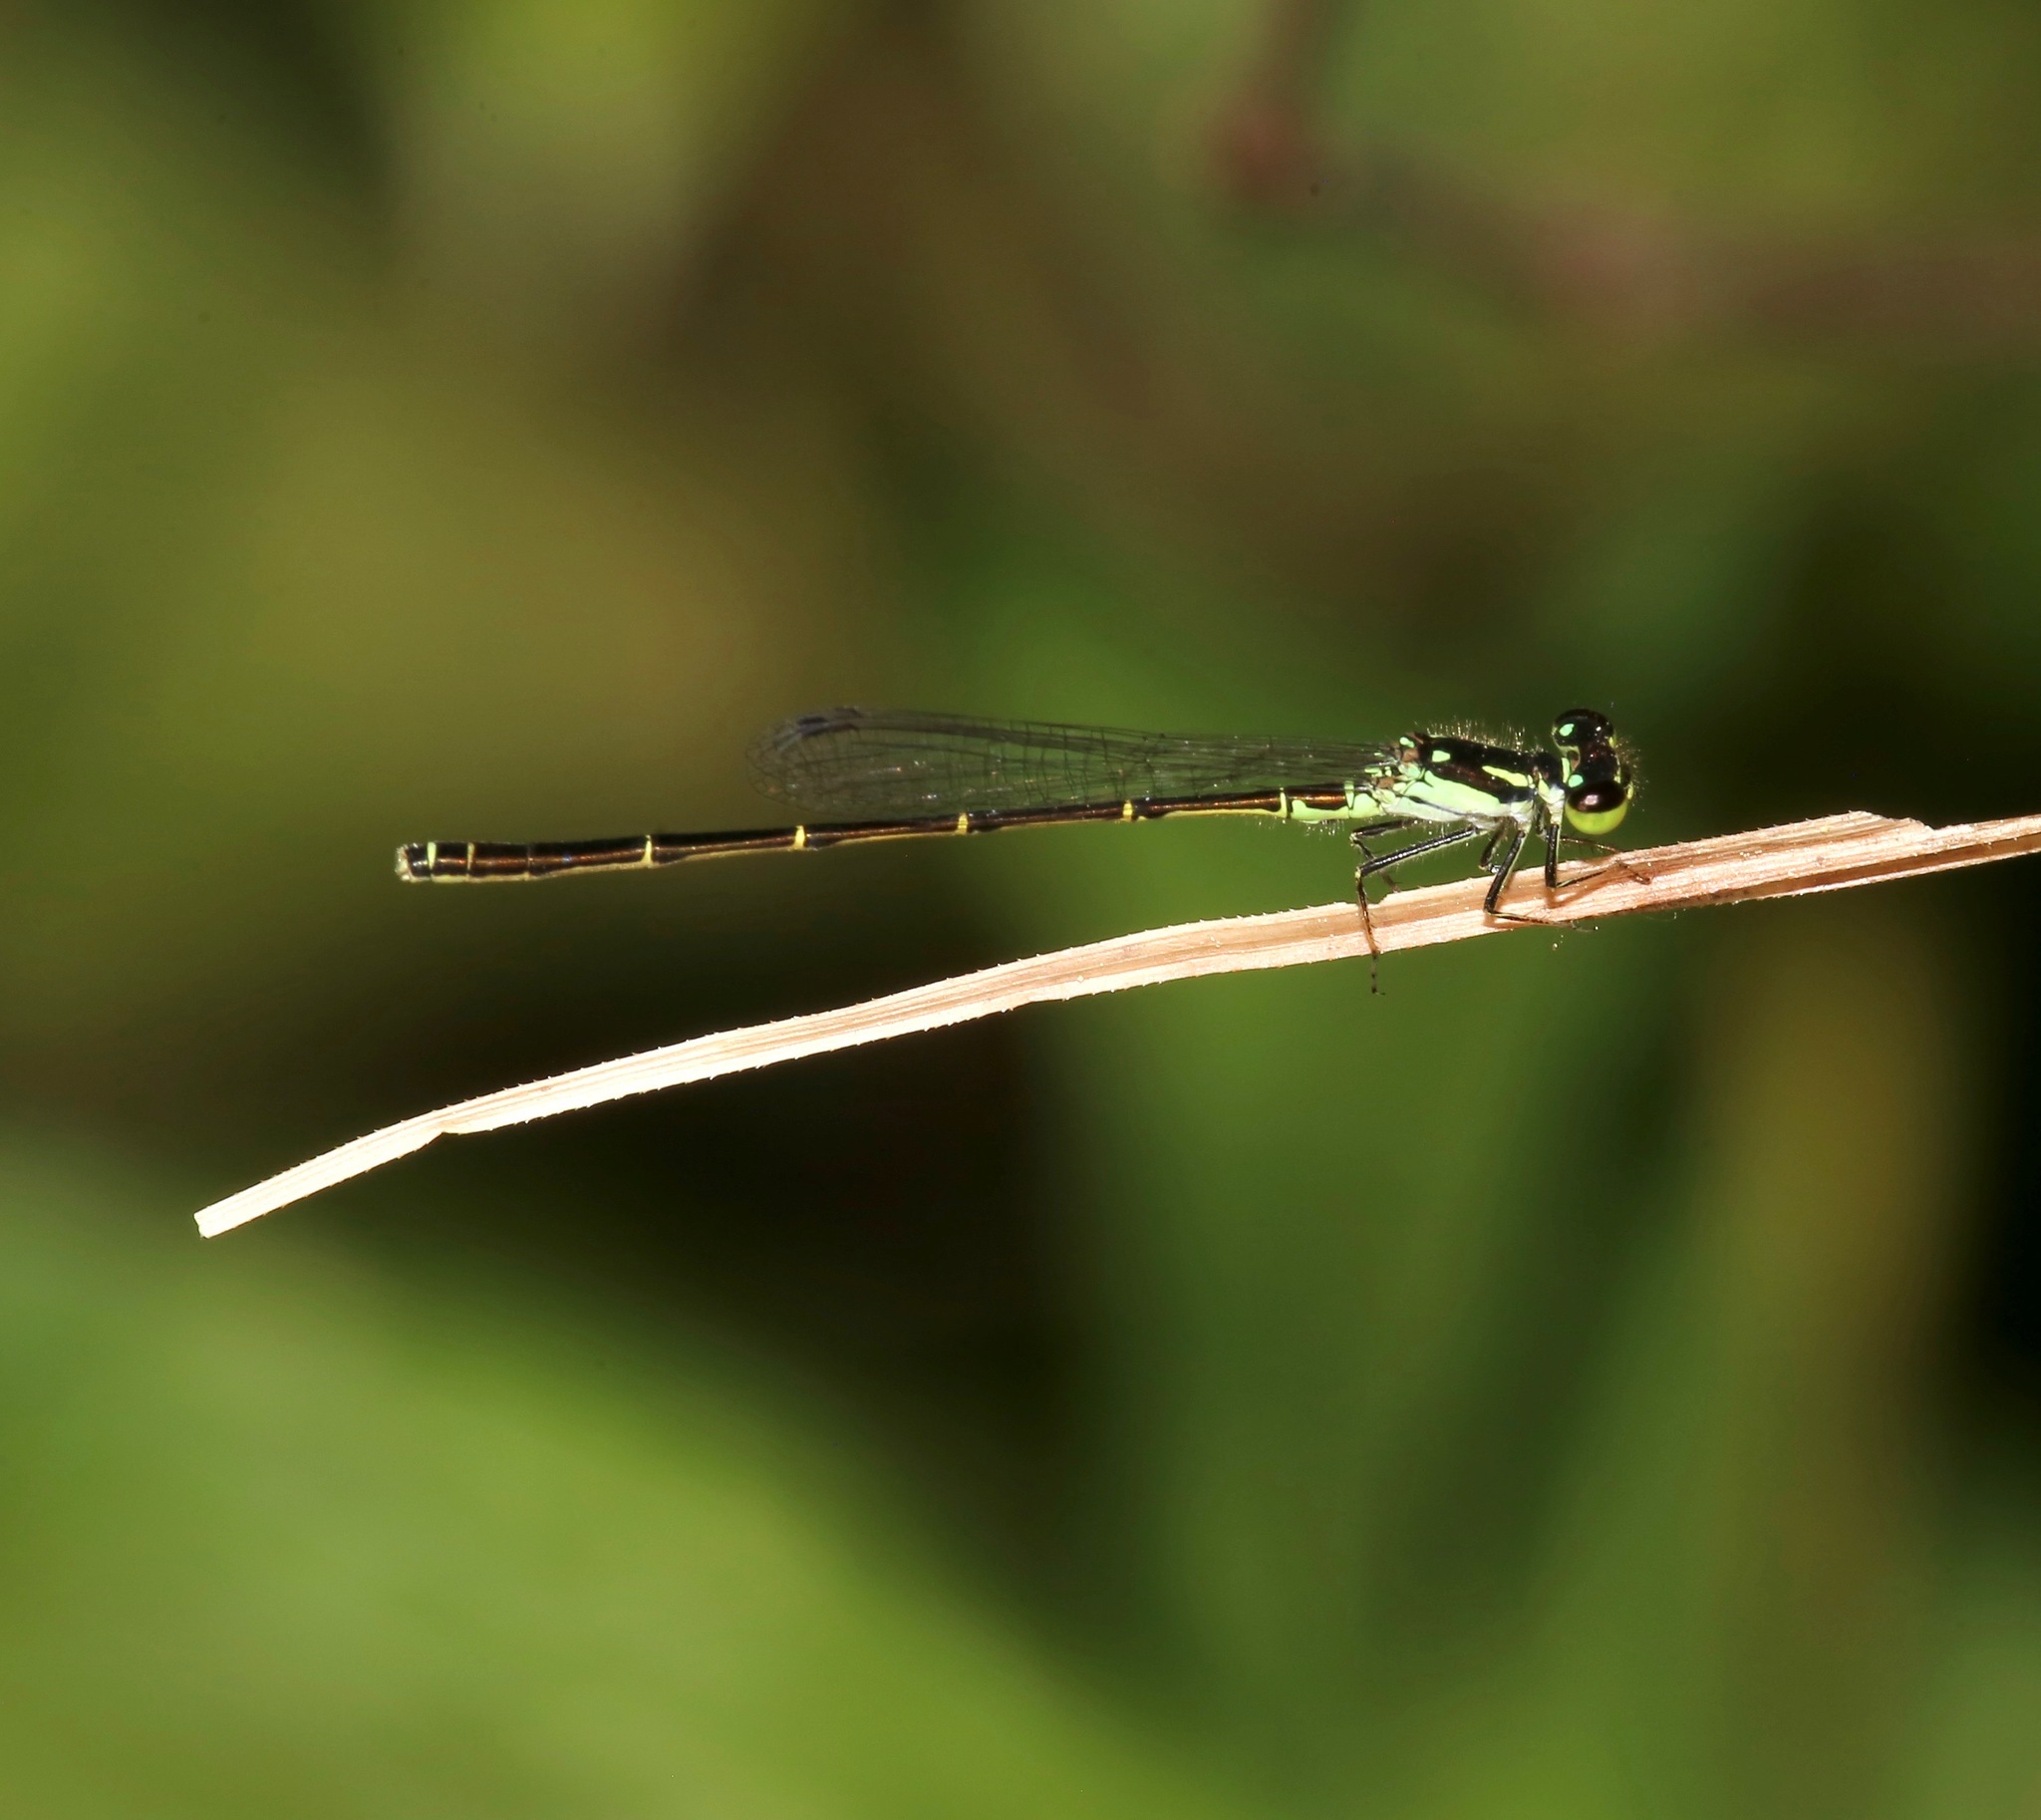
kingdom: Animalia
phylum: Arthropoda
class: Insecta
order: Odonata
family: Coenagrionidae
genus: Ischnura
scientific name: Ischnura posita
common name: Fragile forktail
